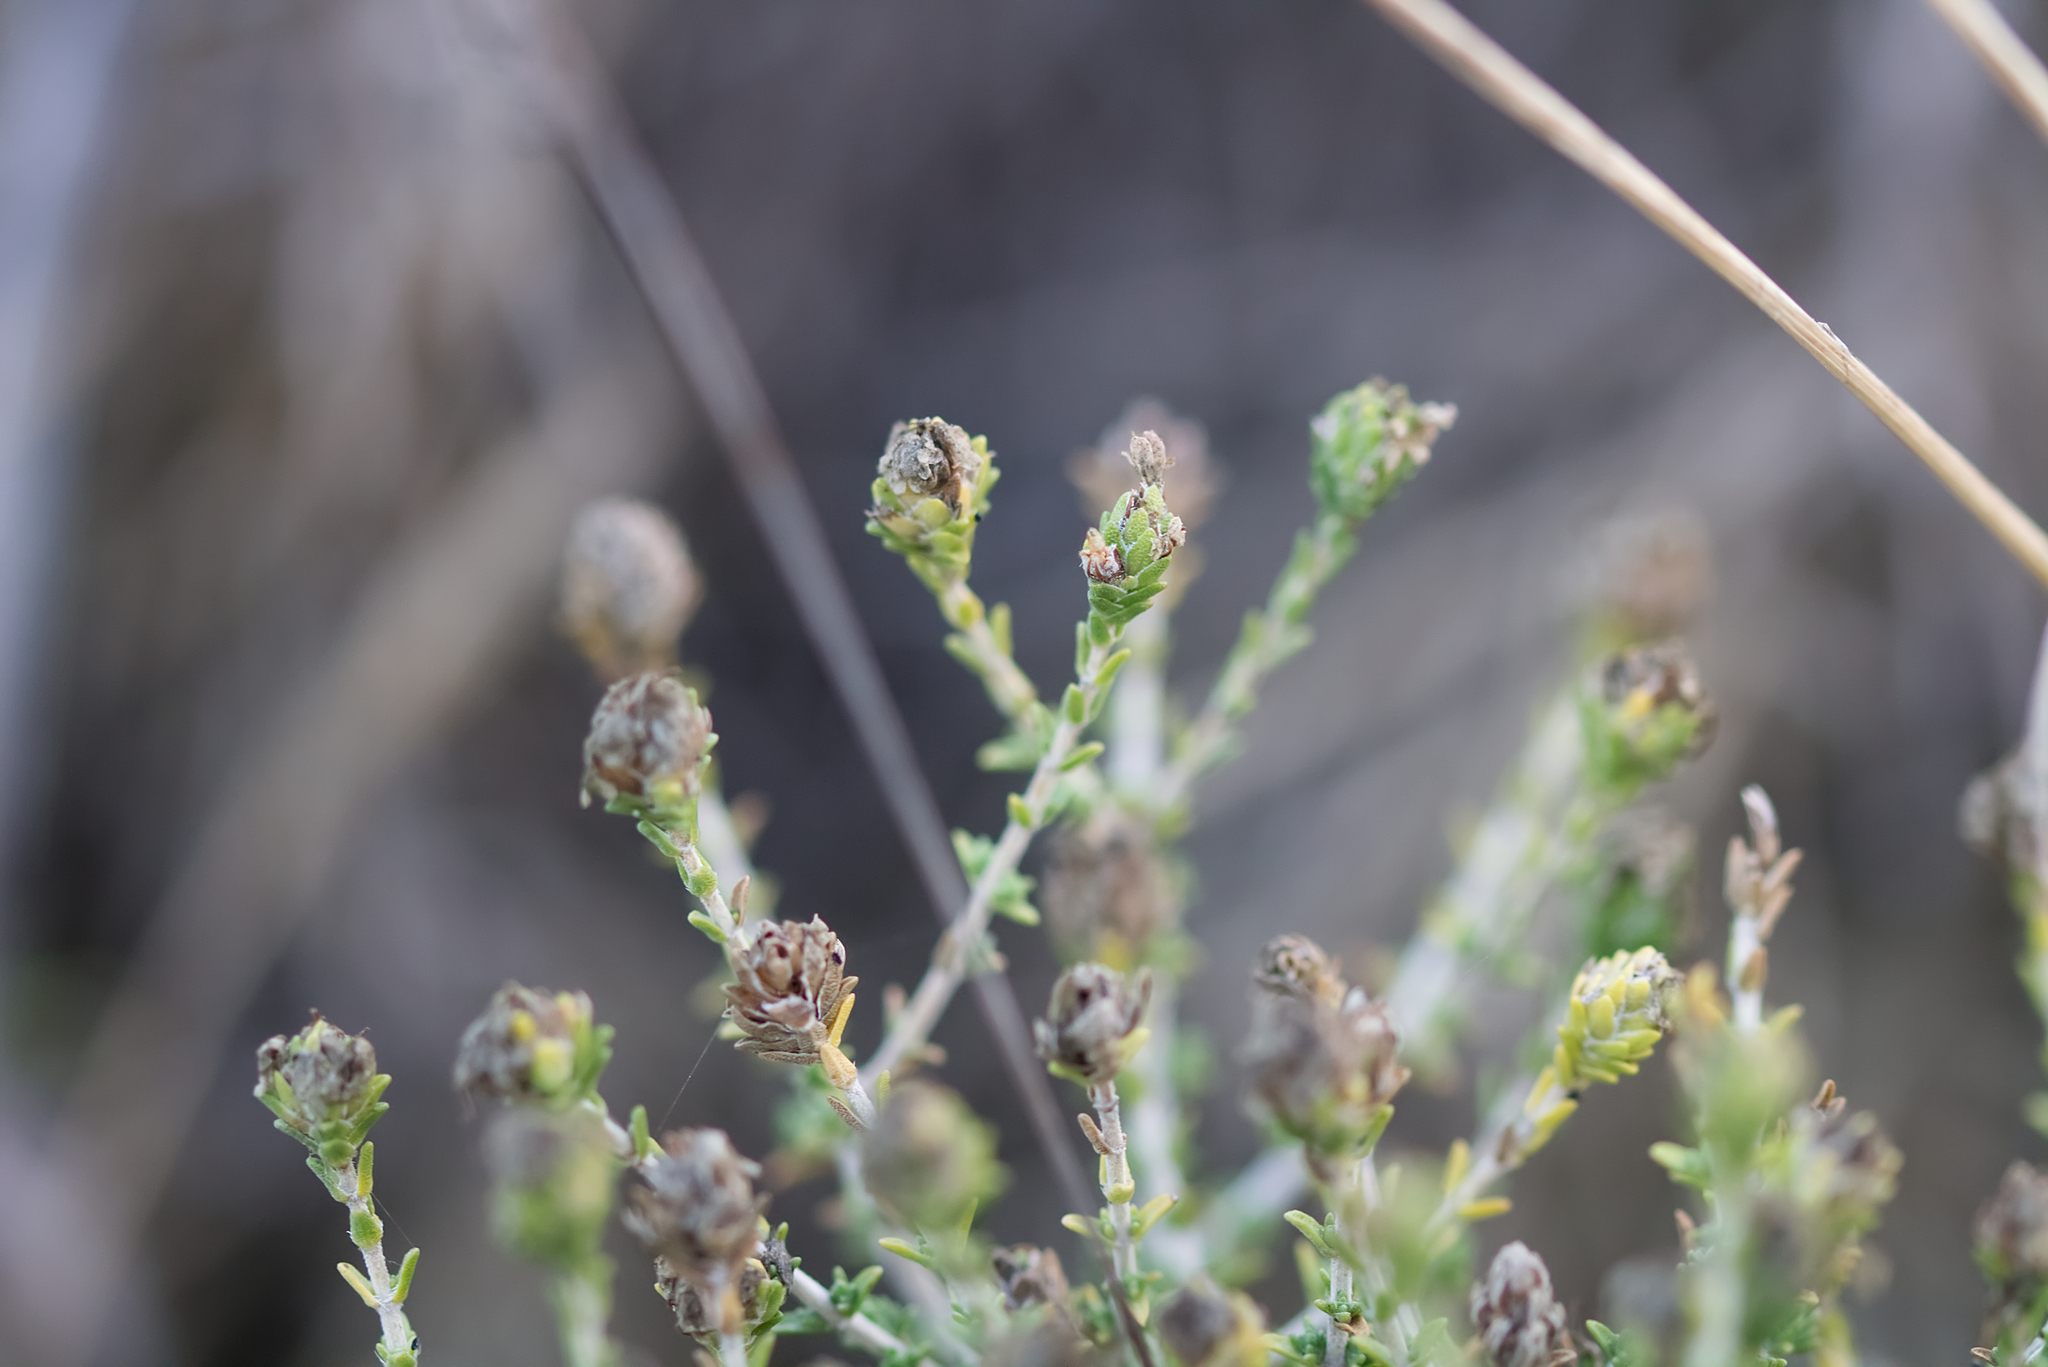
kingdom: Plantae
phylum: Tracheophyta
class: Magnoliopsida
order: Lamiales
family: Lamiaceae
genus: Thymbra
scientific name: Thymbra capitata
